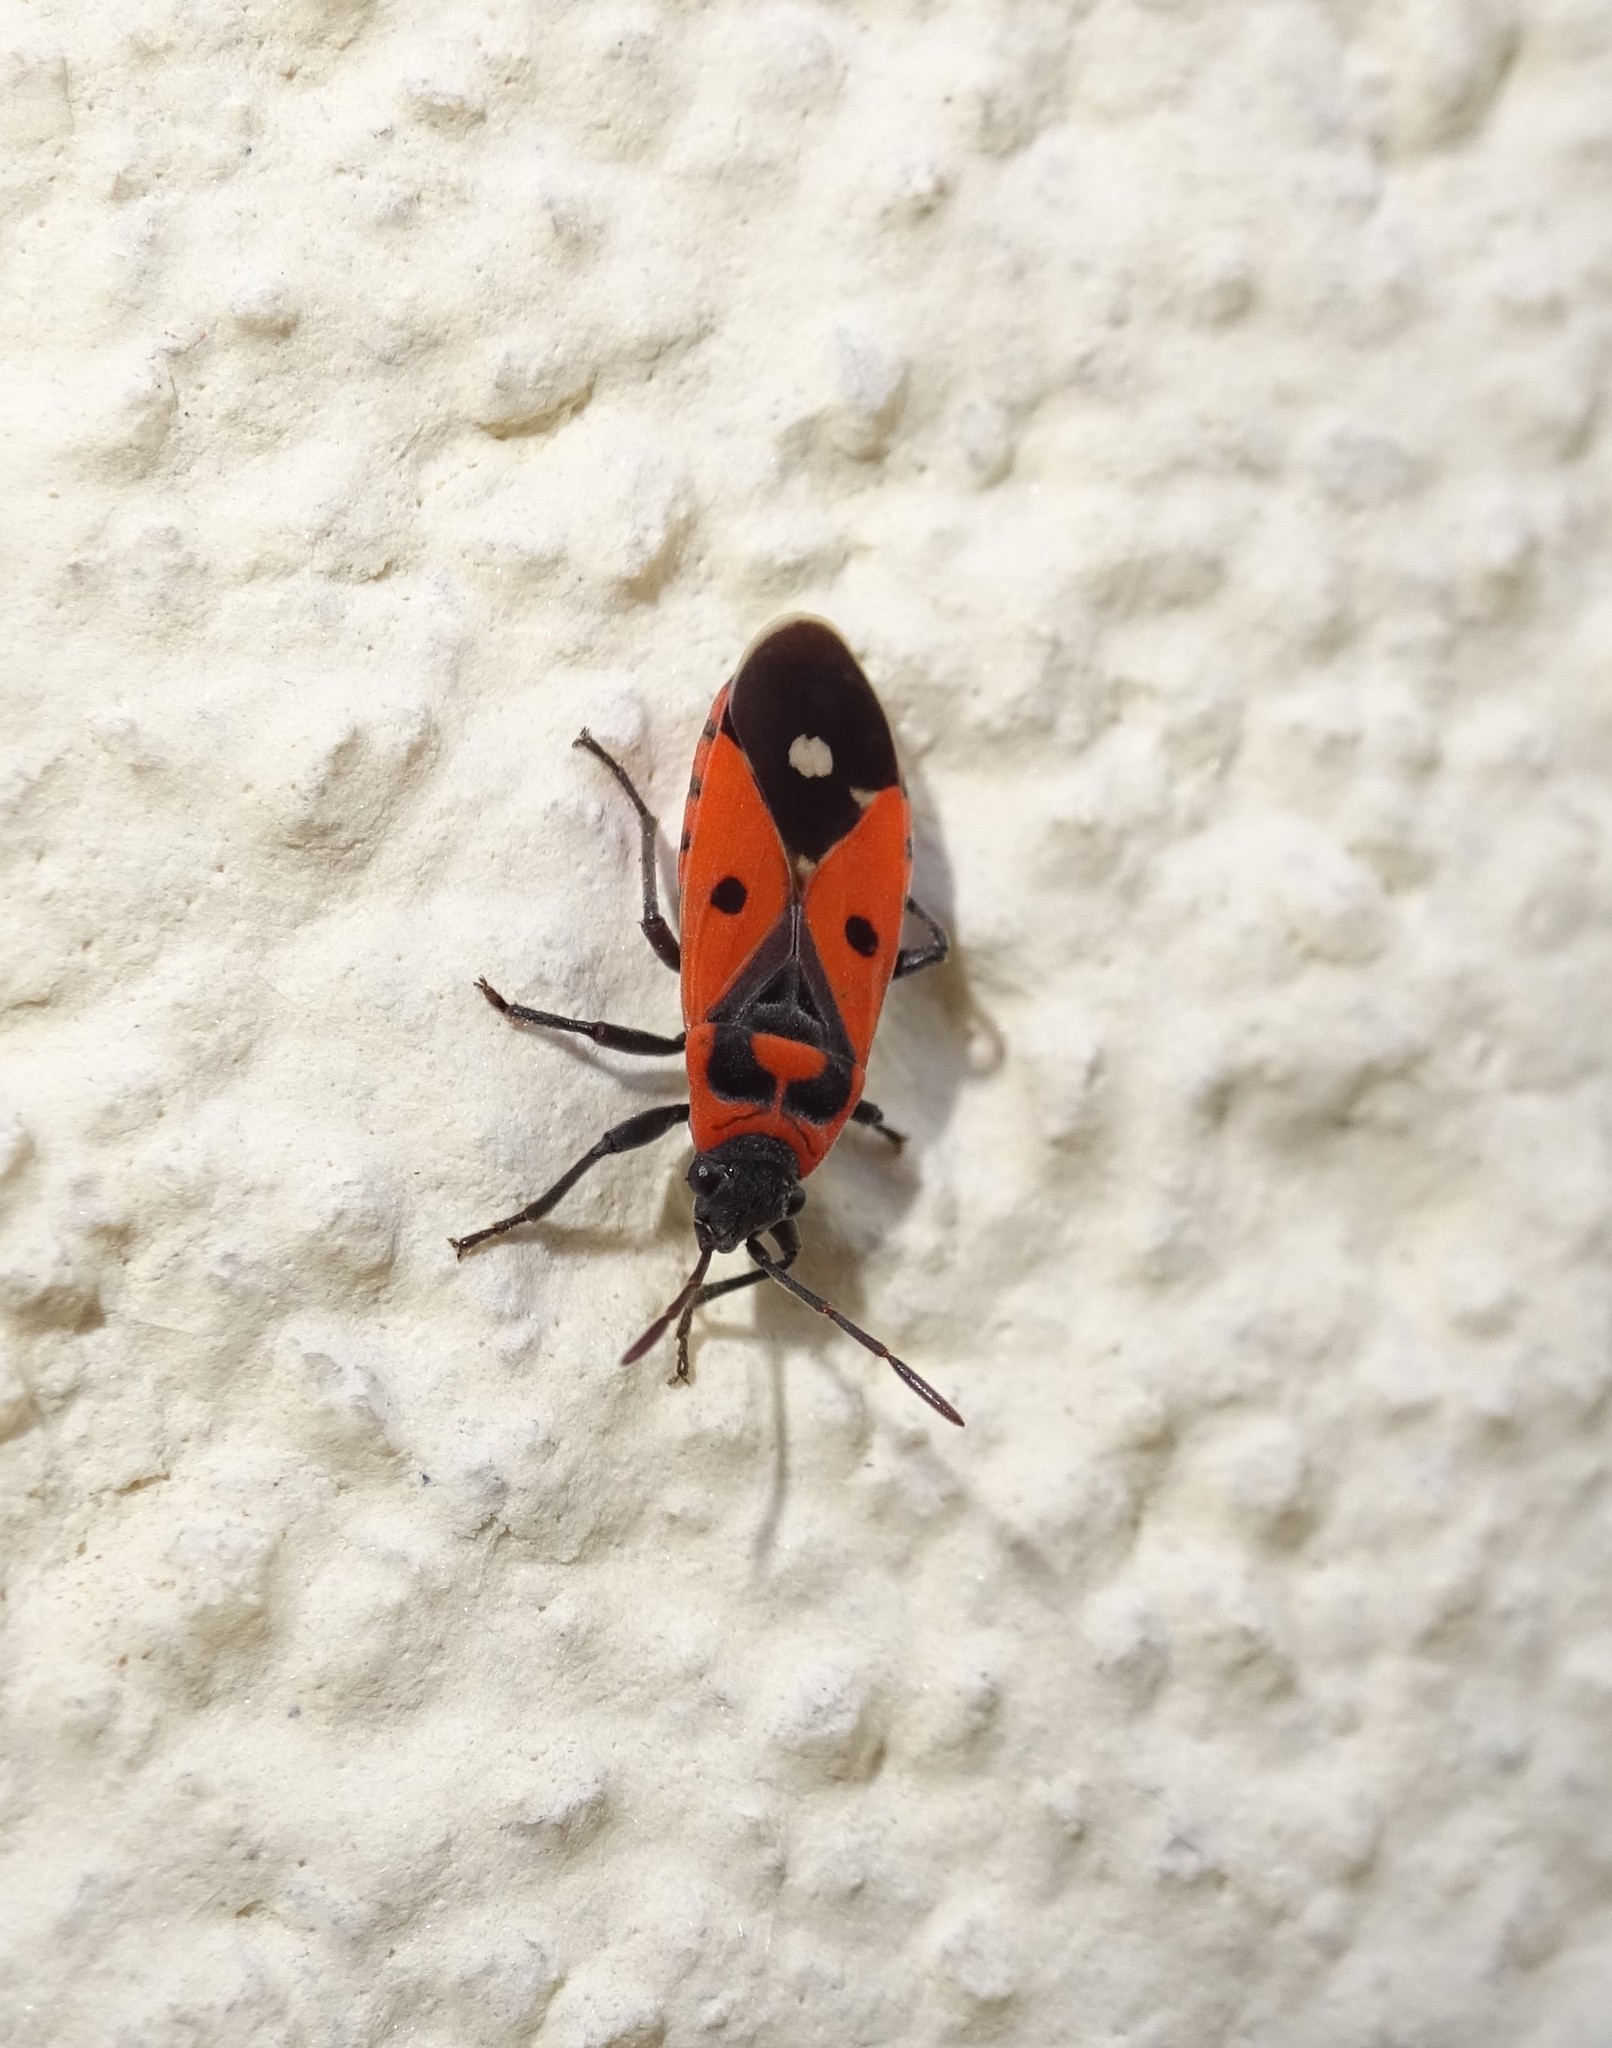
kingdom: Animalia
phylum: Arthropoda
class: Insecta
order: Hemiptera
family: Lygaeidae
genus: Melanocoryphus
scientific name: Melanocoryphus albomaculatus
